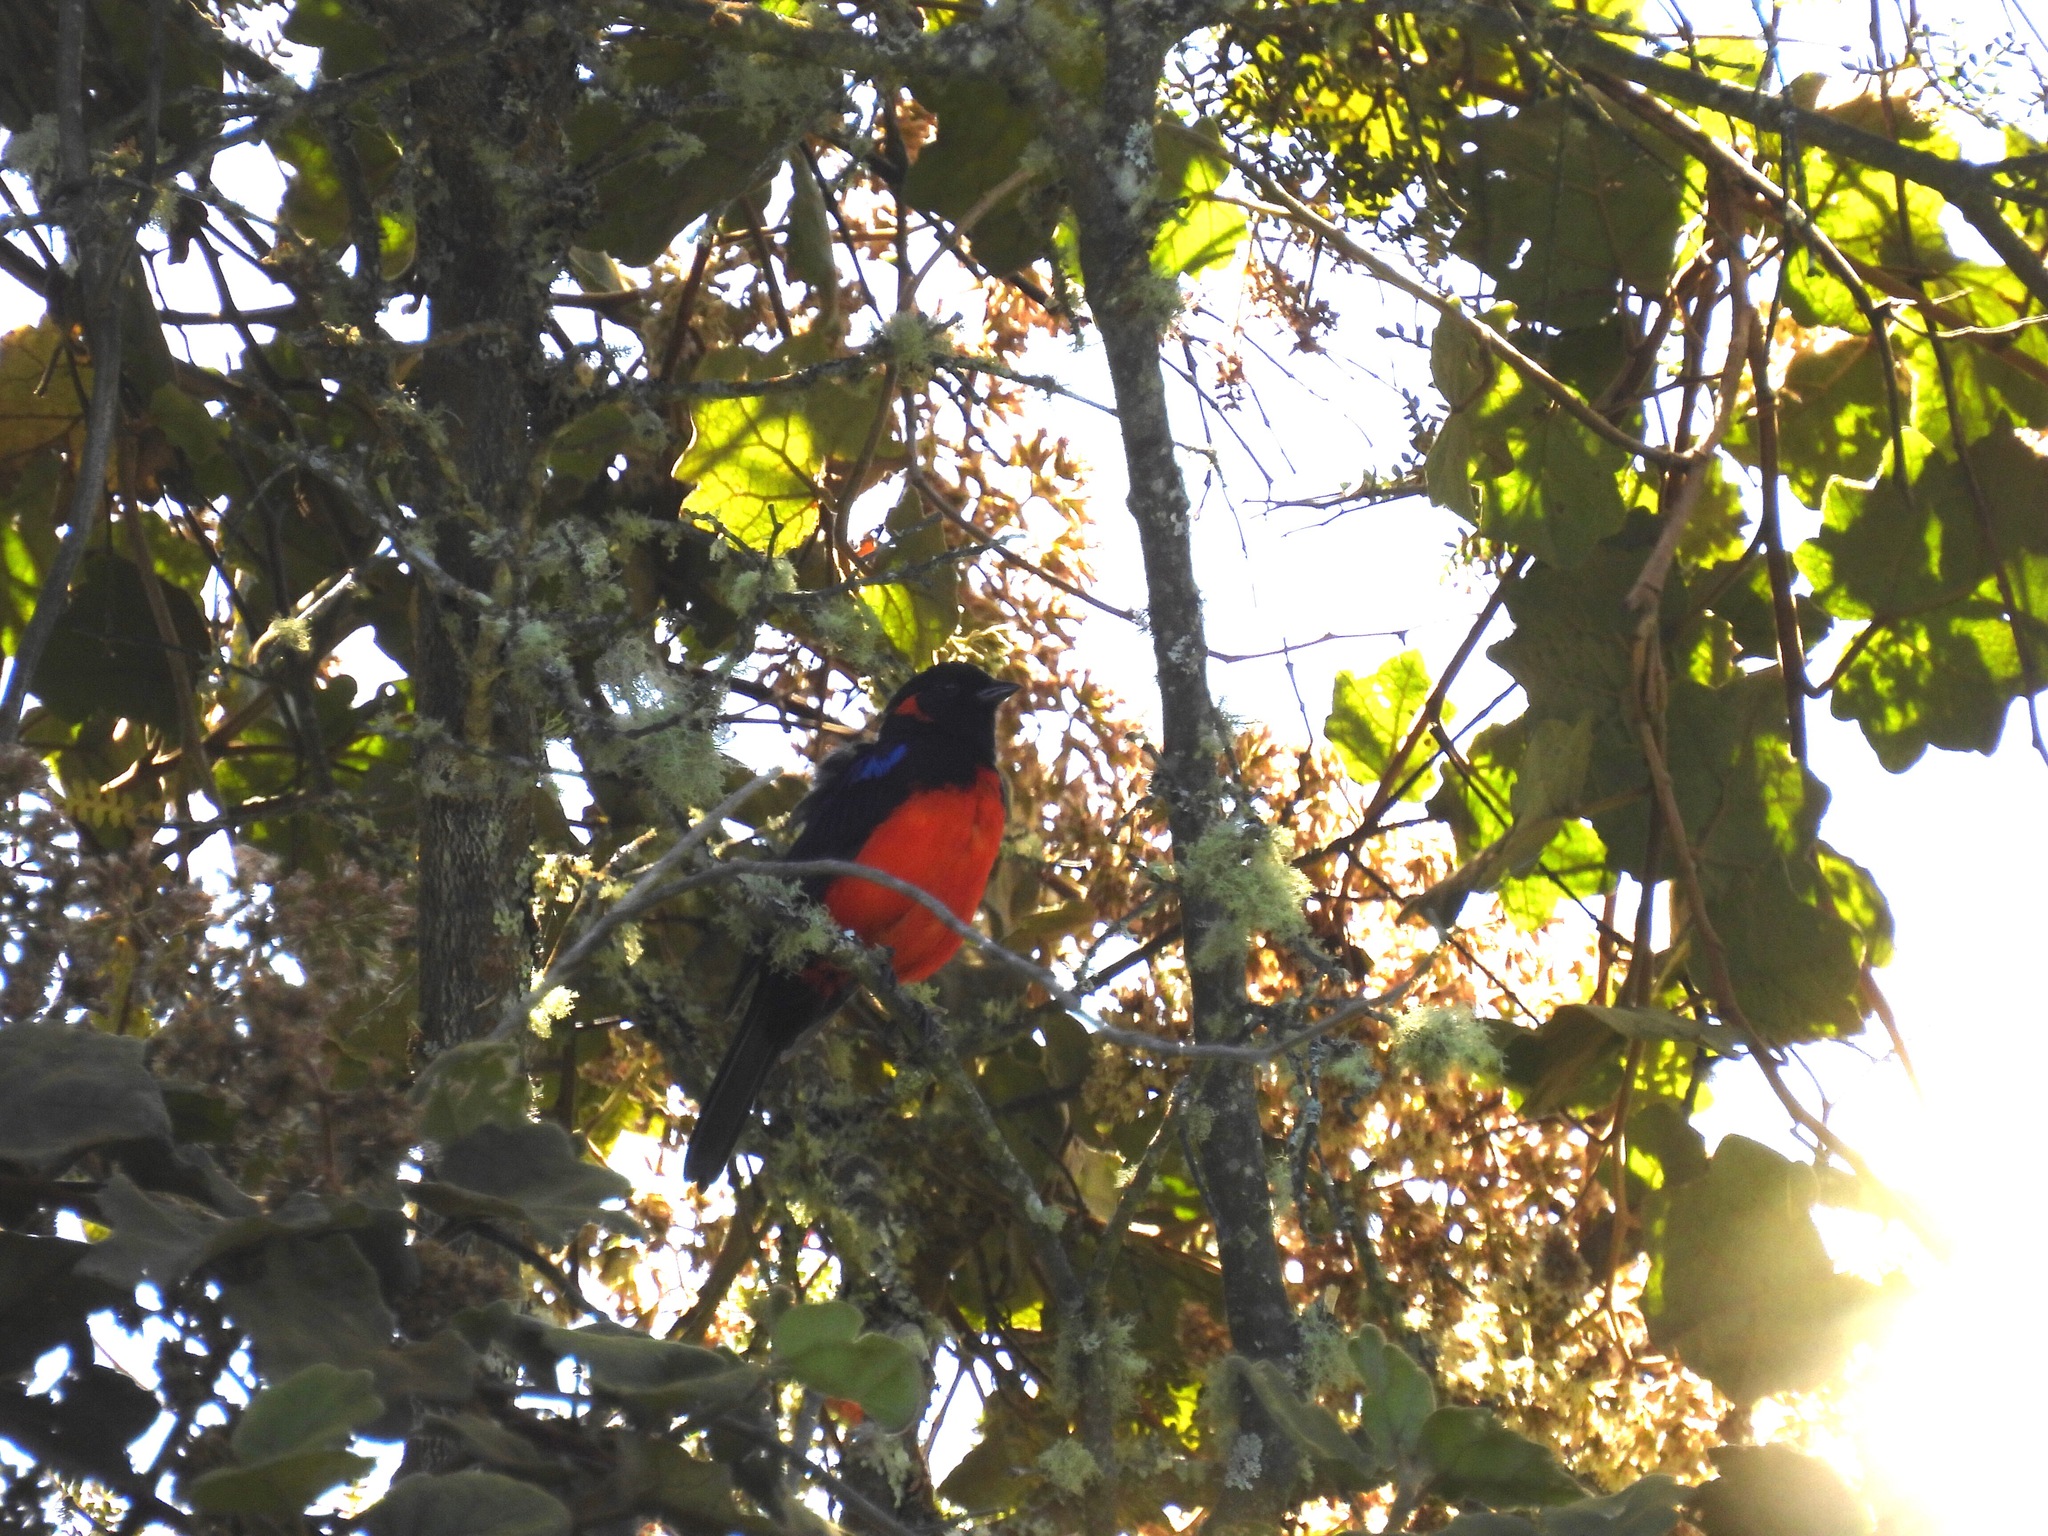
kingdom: Animalia
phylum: Chordata
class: Aves
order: Passeriformes
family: Thraupidae
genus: Anisognathus
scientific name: Anisognathus igniventris
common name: Scarlet-bellied mountain tanager
